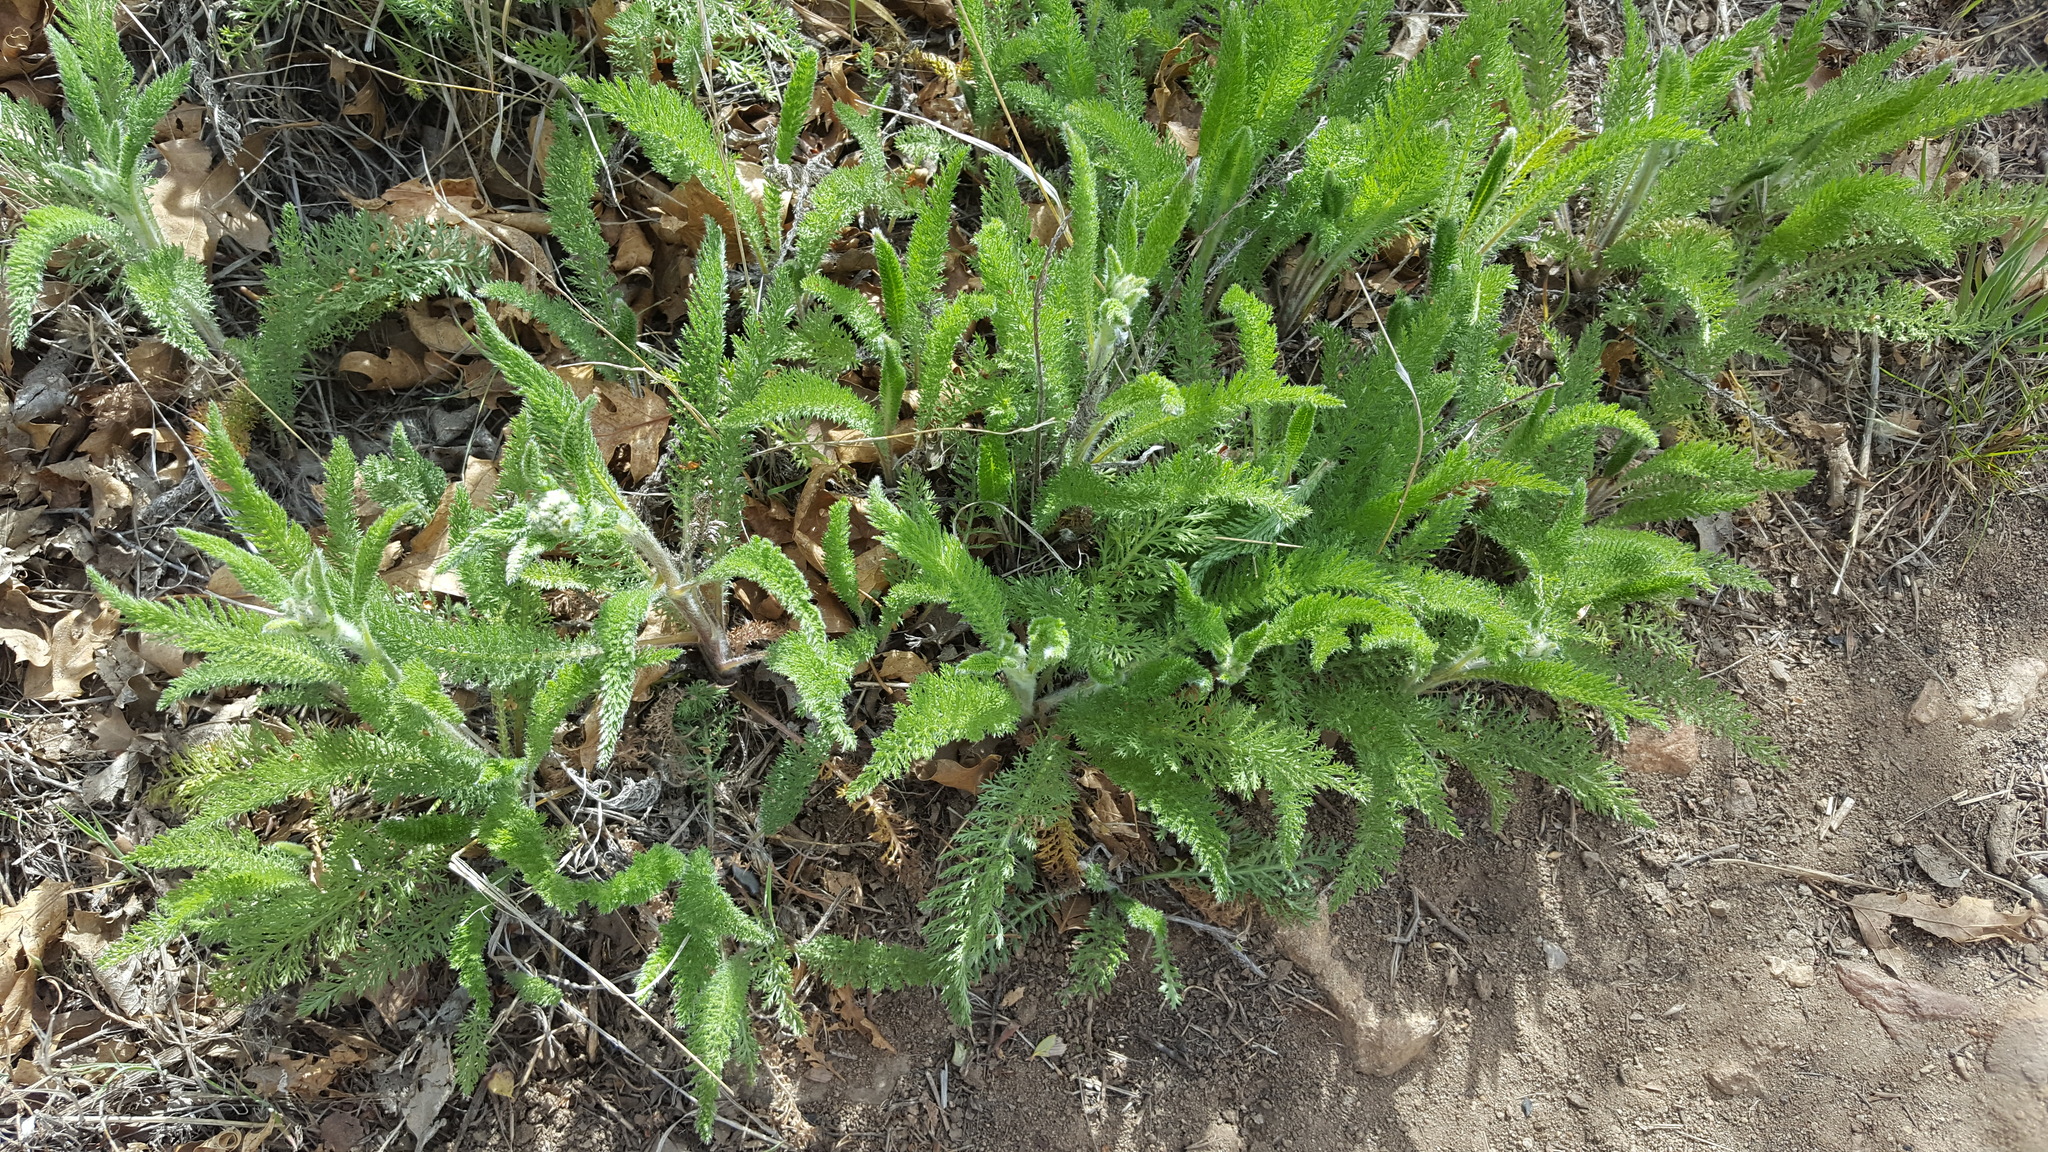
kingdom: Plantae
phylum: Tracheophyta
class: Magnoliopsida
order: Asterales
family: Asteraceae
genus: Achillea
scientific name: Achillea millefolium
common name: Yarrow
